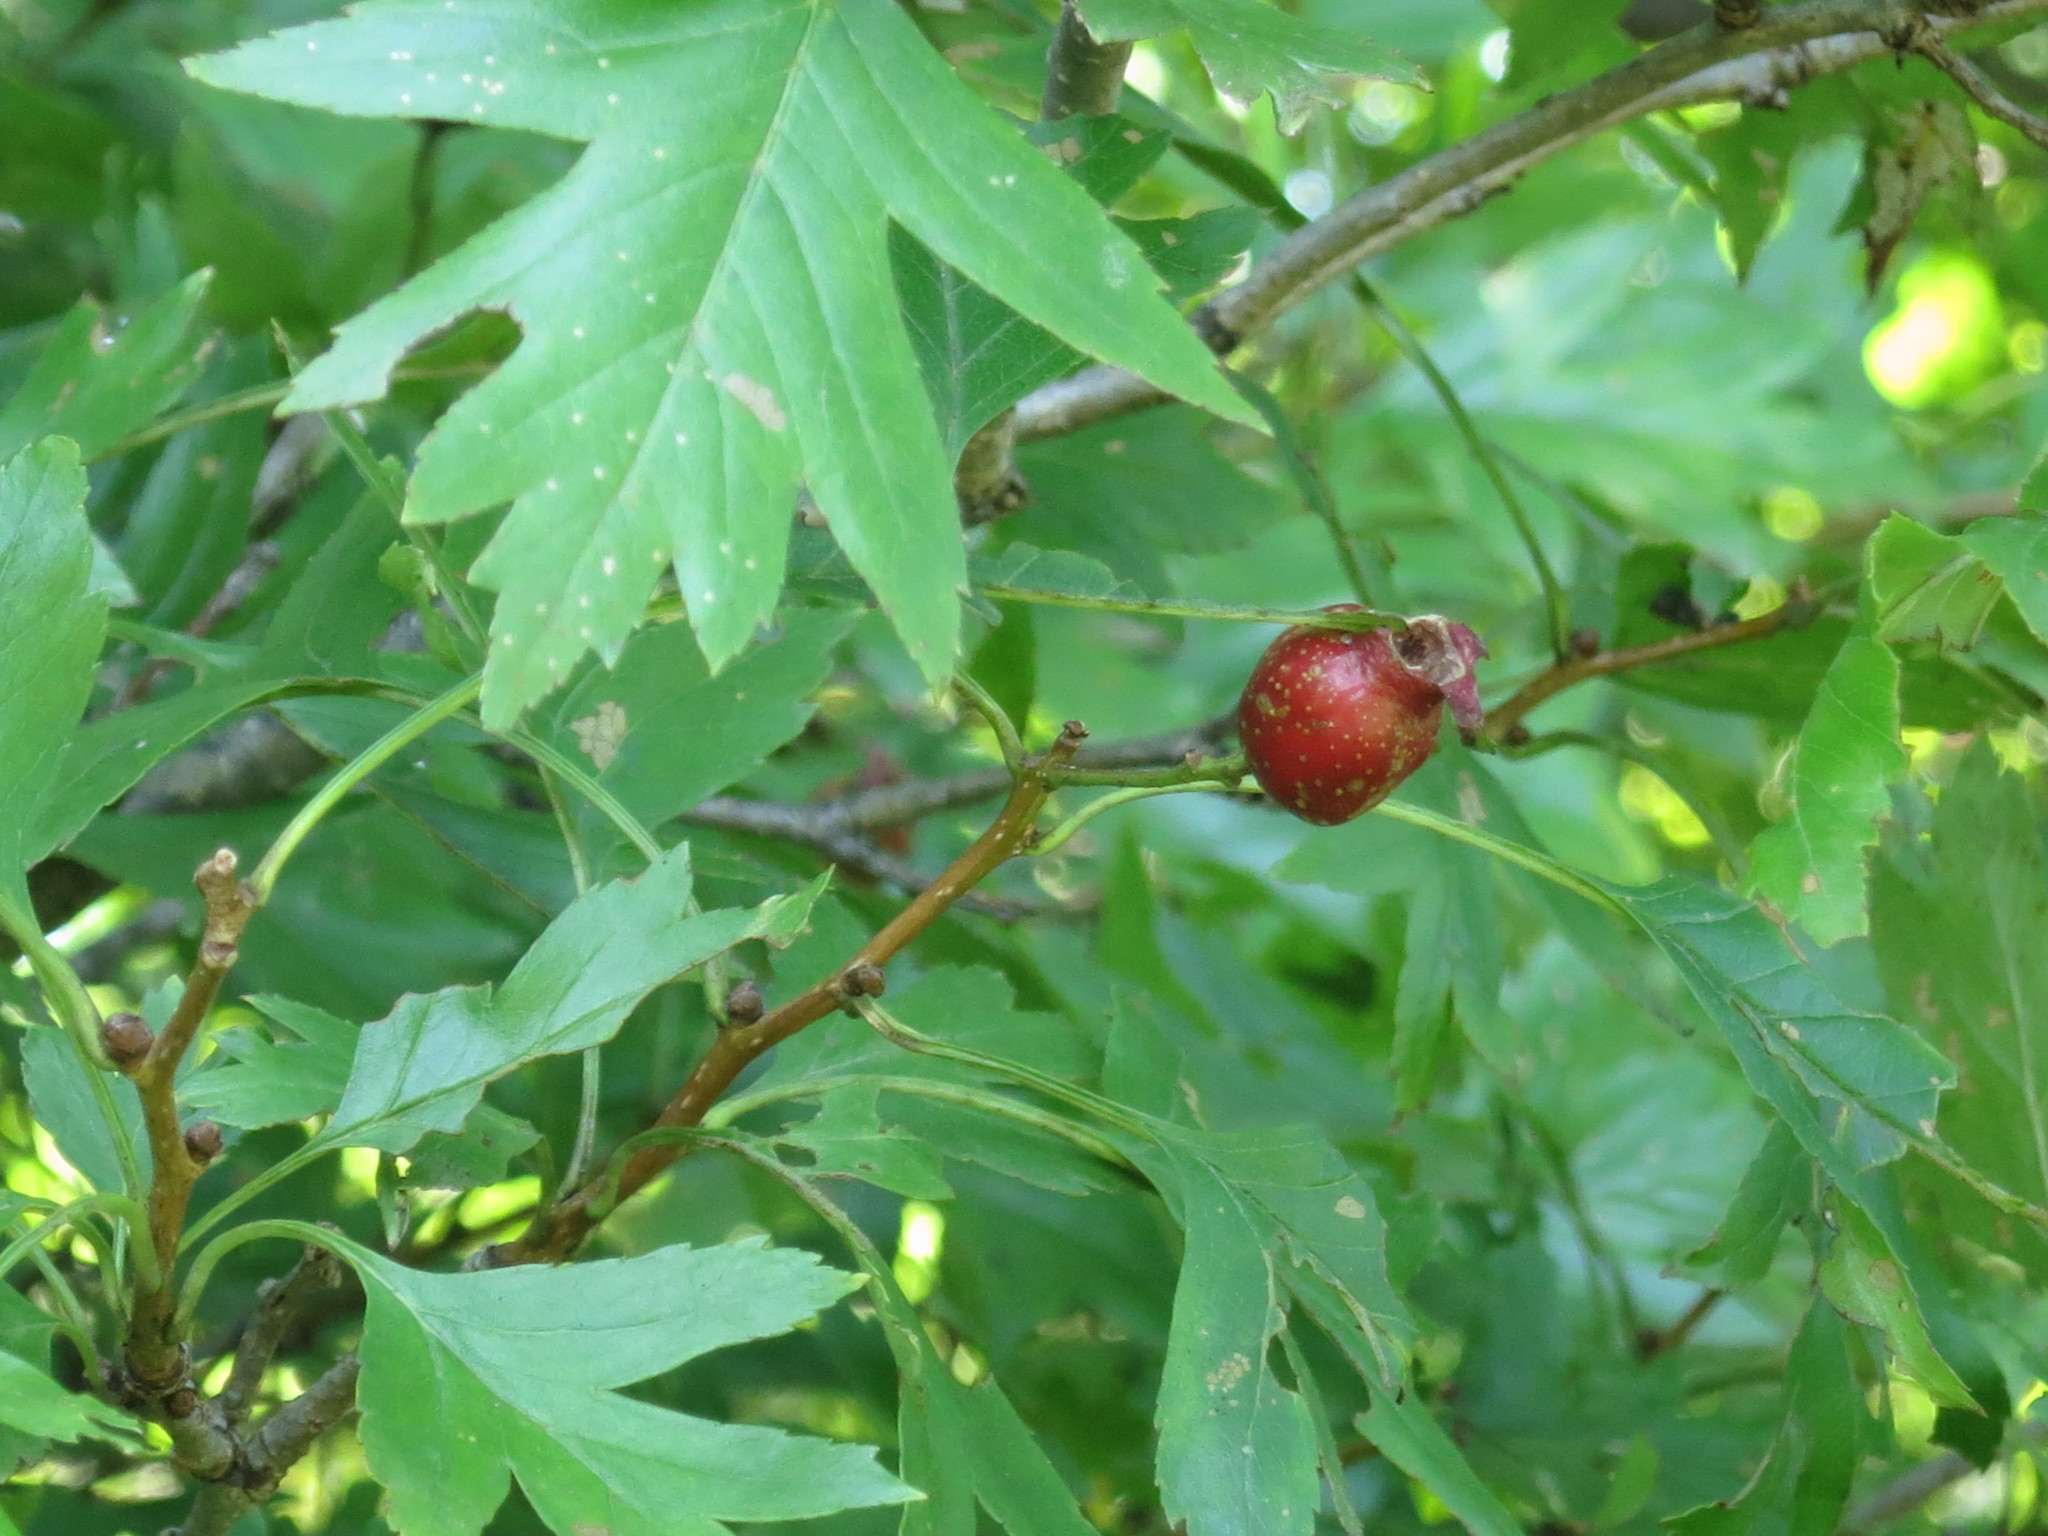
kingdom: Plantae
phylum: Tracheophyta
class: Magnoliopsida
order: Rosales
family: Rosaceae
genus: Crataegus
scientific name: Crataegus pinnatifida
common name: Chinese haw
